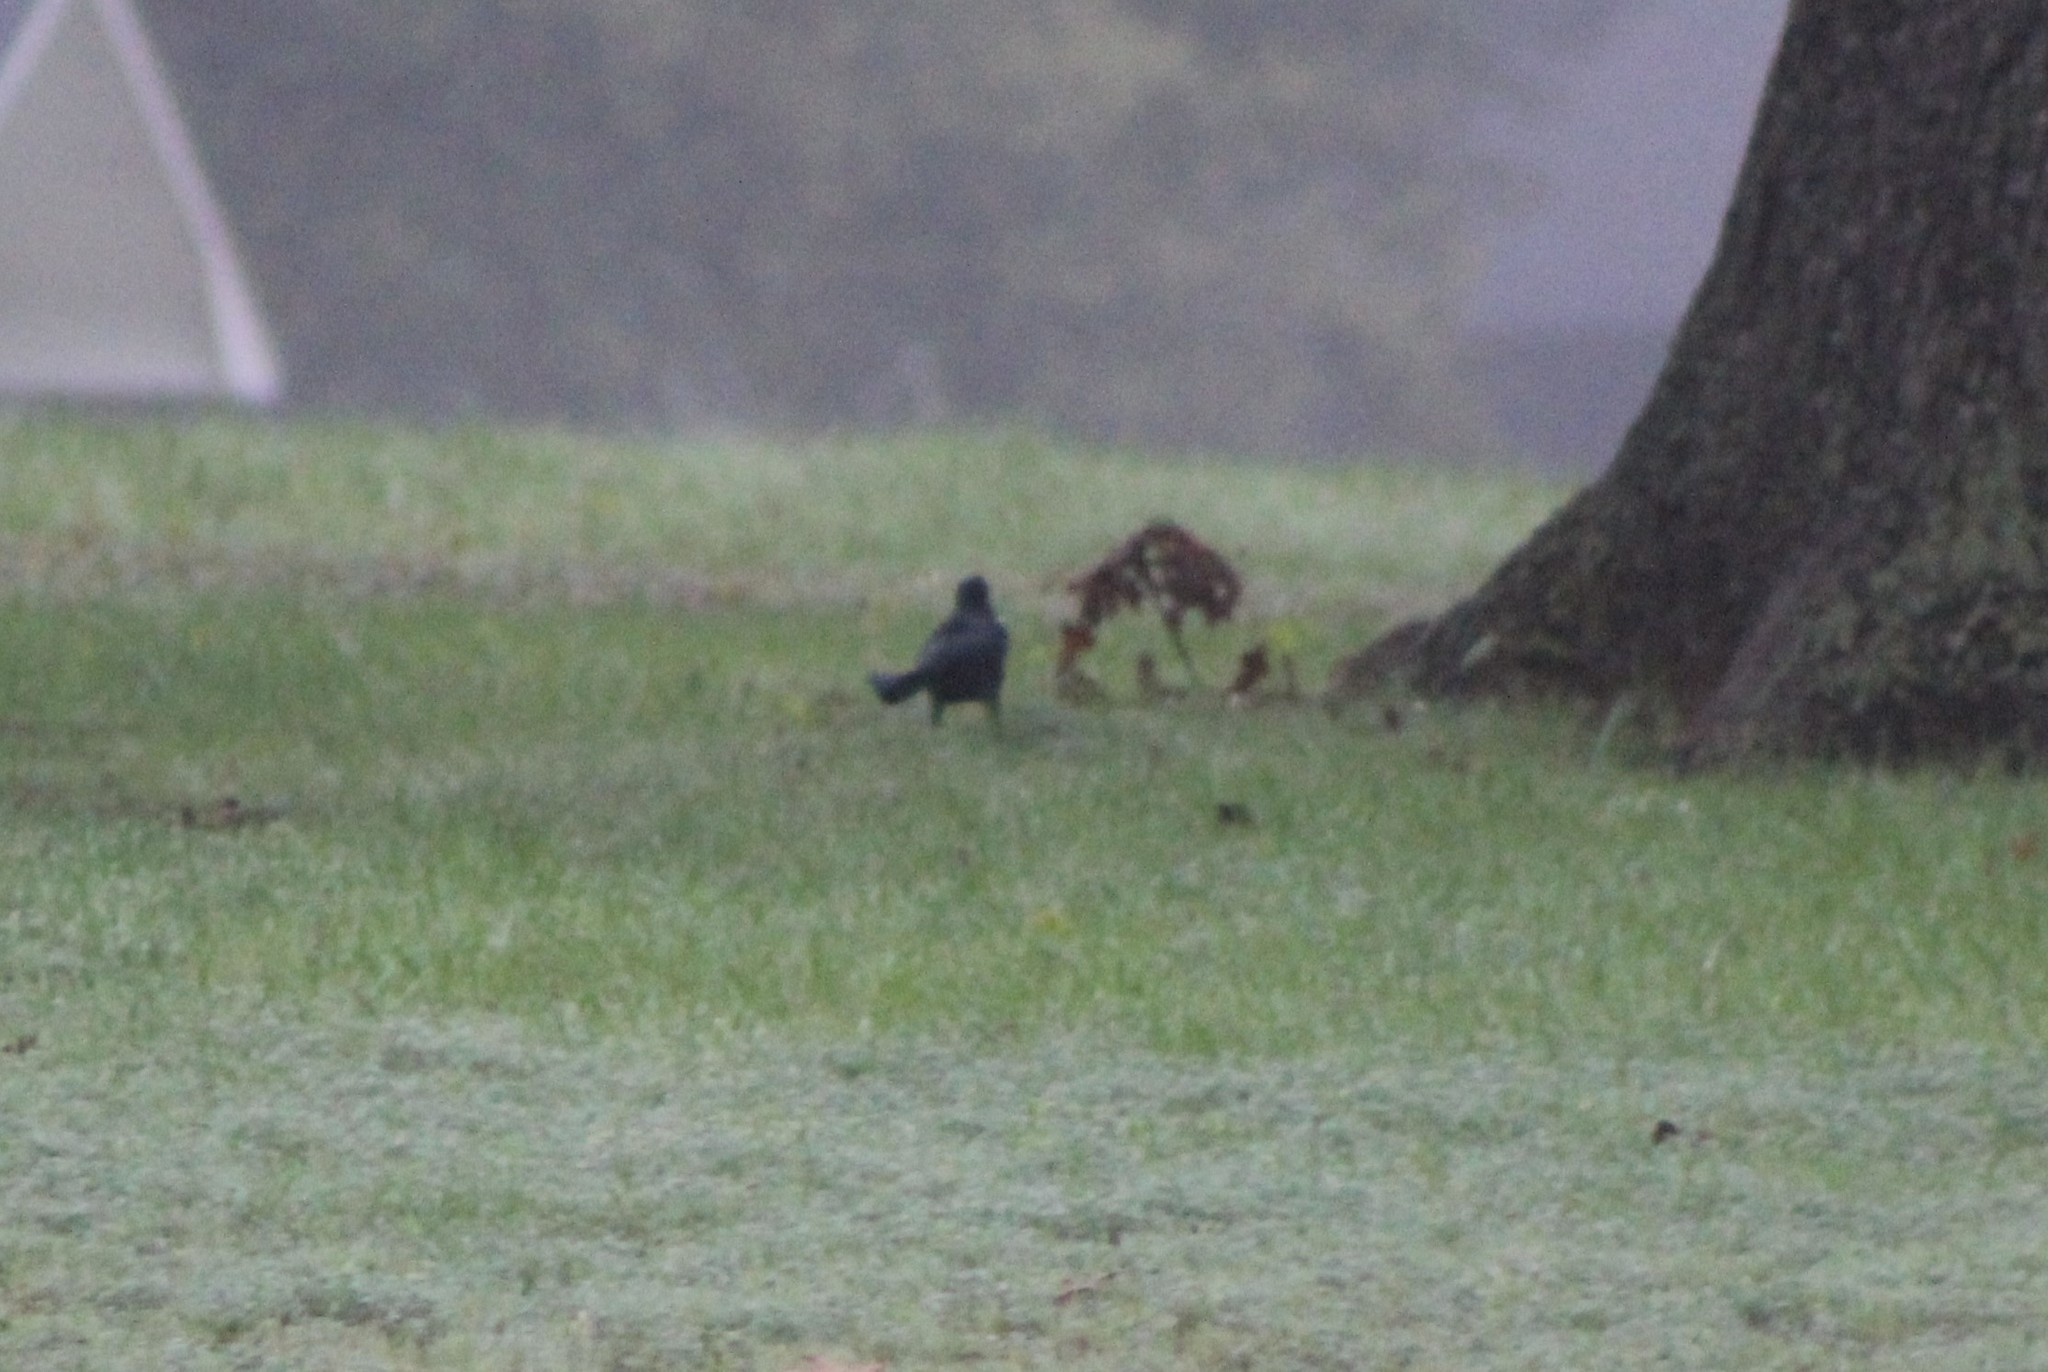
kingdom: Animalia
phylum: Chordata
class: Aves
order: Passeriformes
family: Icteridae
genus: Quiscalus
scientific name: Quiscalus mexicanus
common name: Great-tailed grackle
